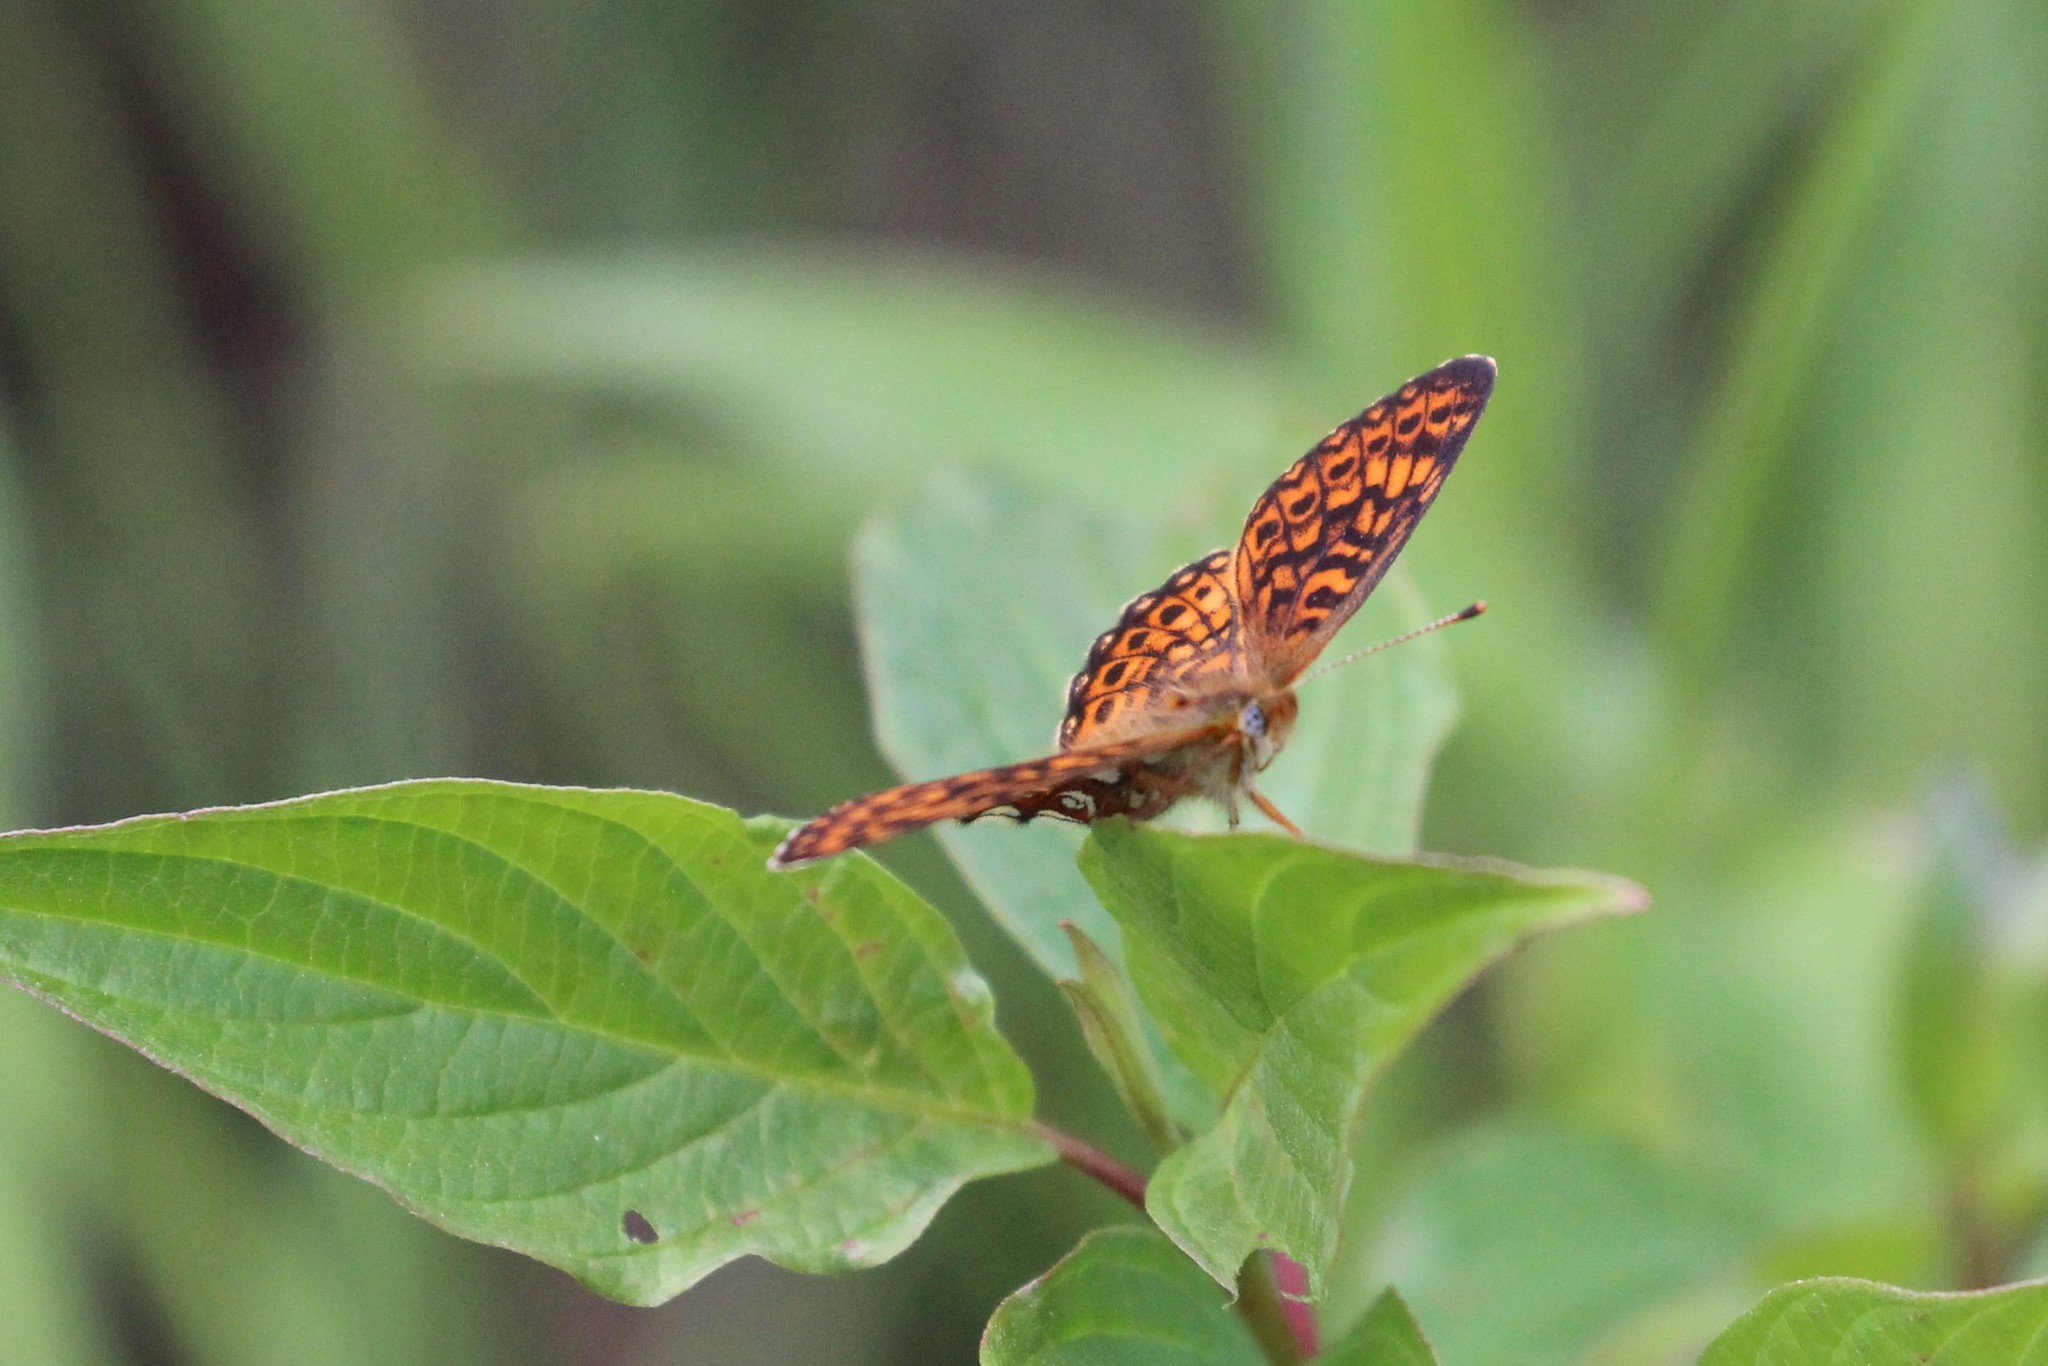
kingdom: Animalia
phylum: Arthropoda
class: Insecta
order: Lepidoptera
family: Nymphalidae
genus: Boloria
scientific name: Boloria eunomia
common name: Bog fritillary
